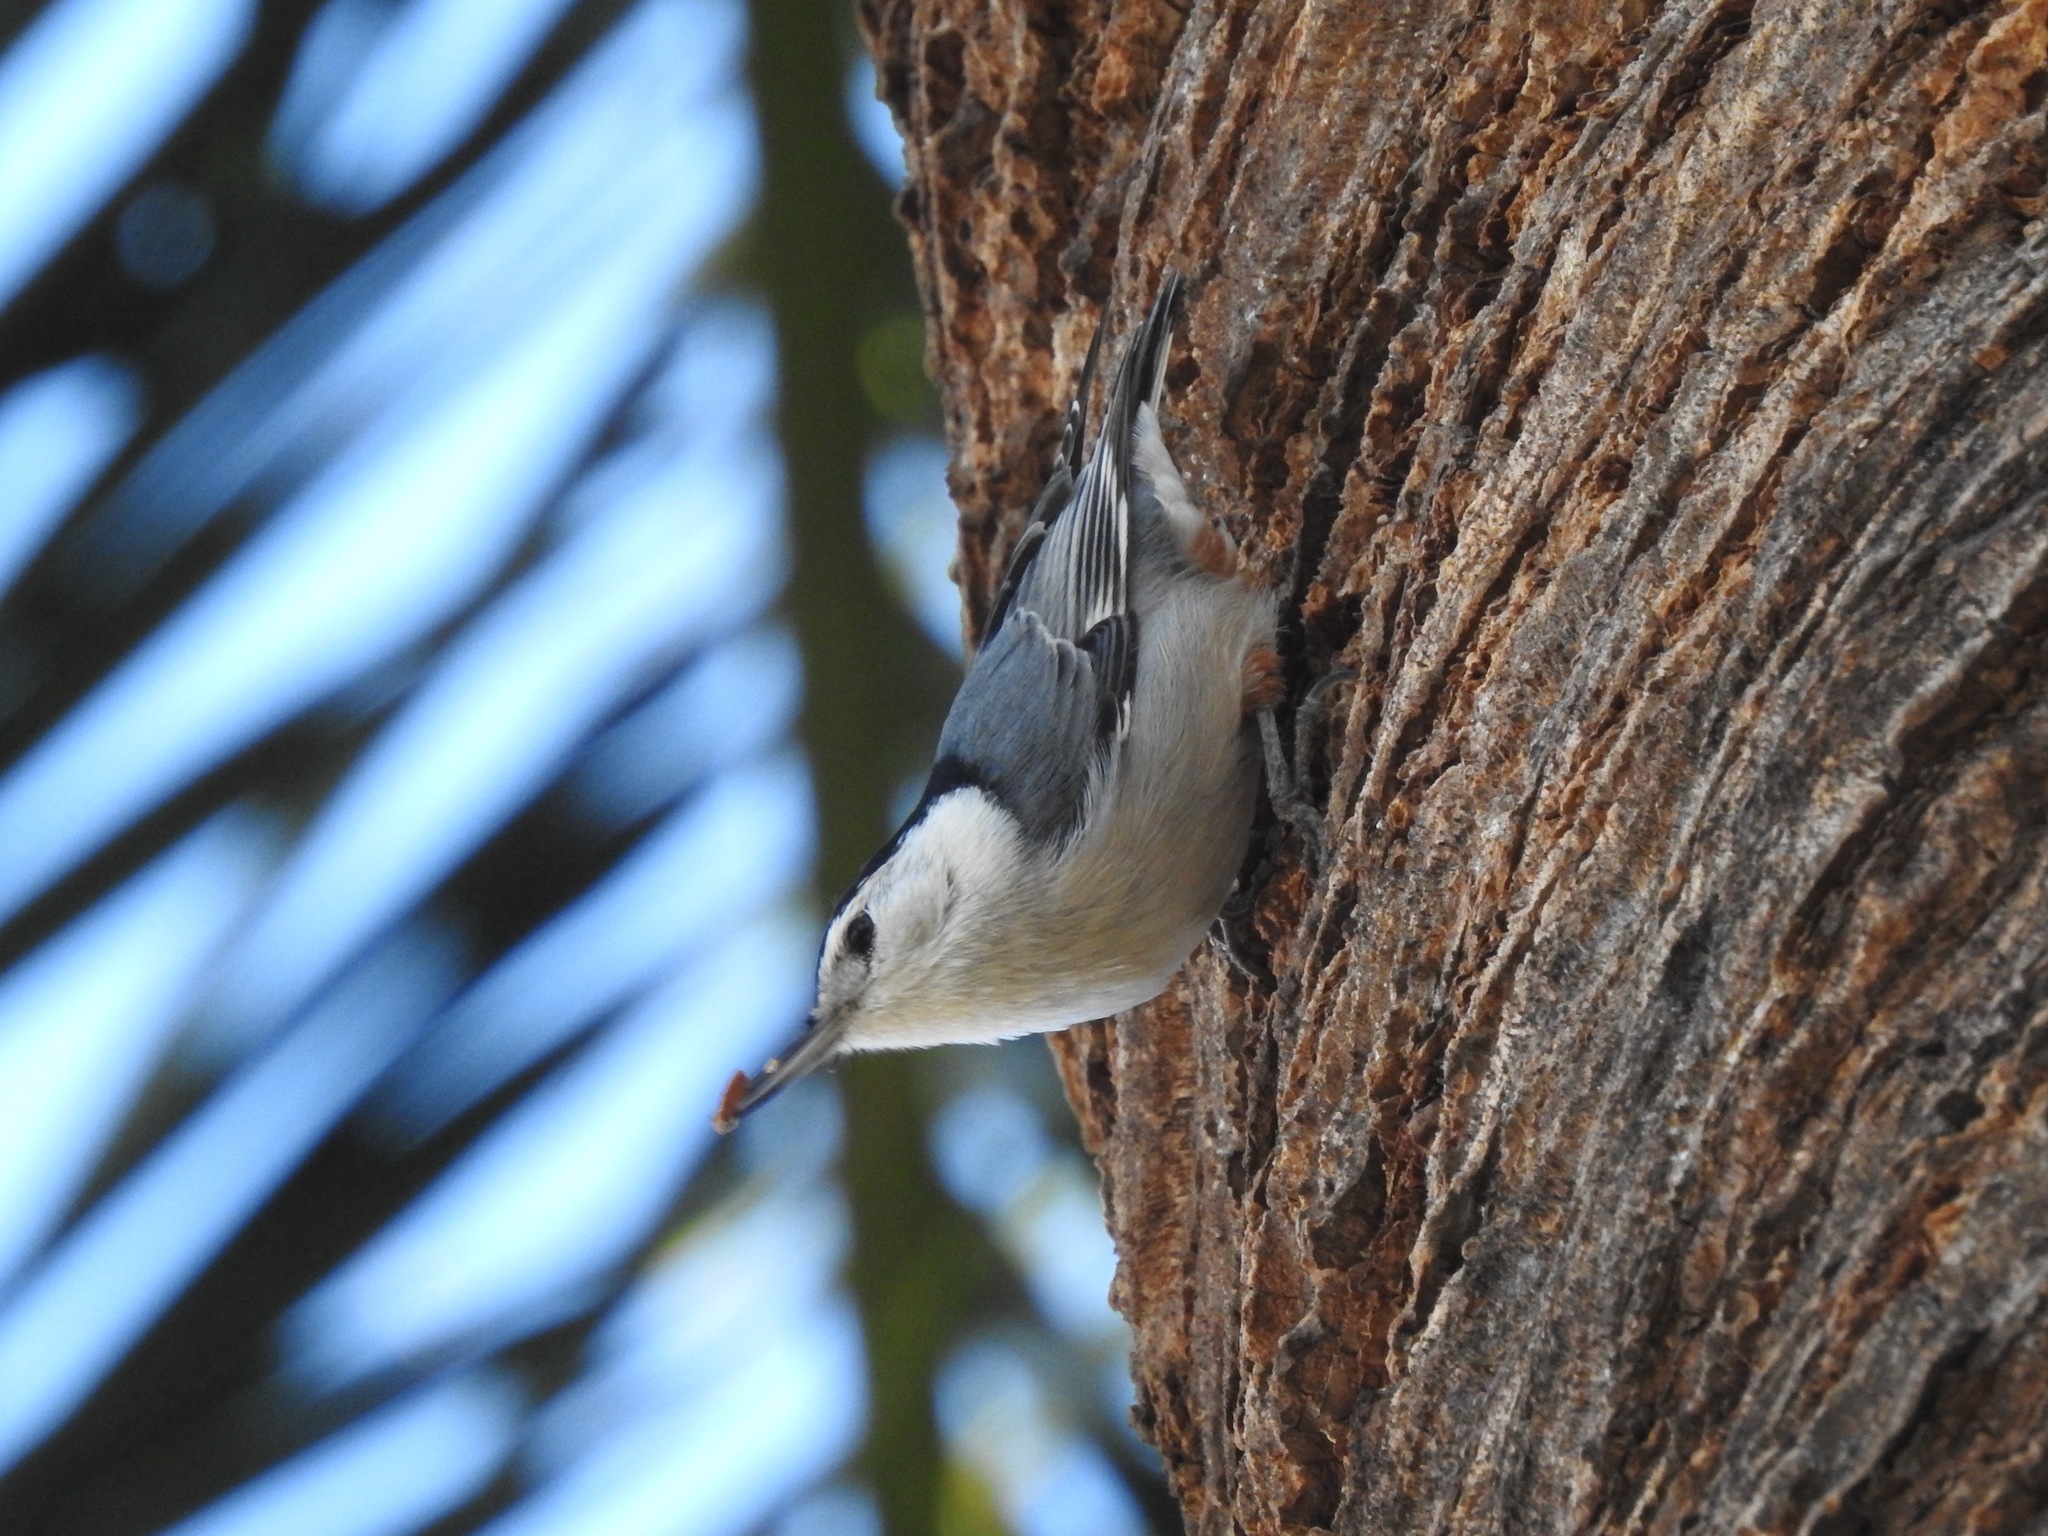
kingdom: Animalia
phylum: Chordata
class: Aves
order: Passeriformes
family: Sittidae
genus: Sitta
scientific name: Sitta carolinensis
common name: White-breasted nuthatch
